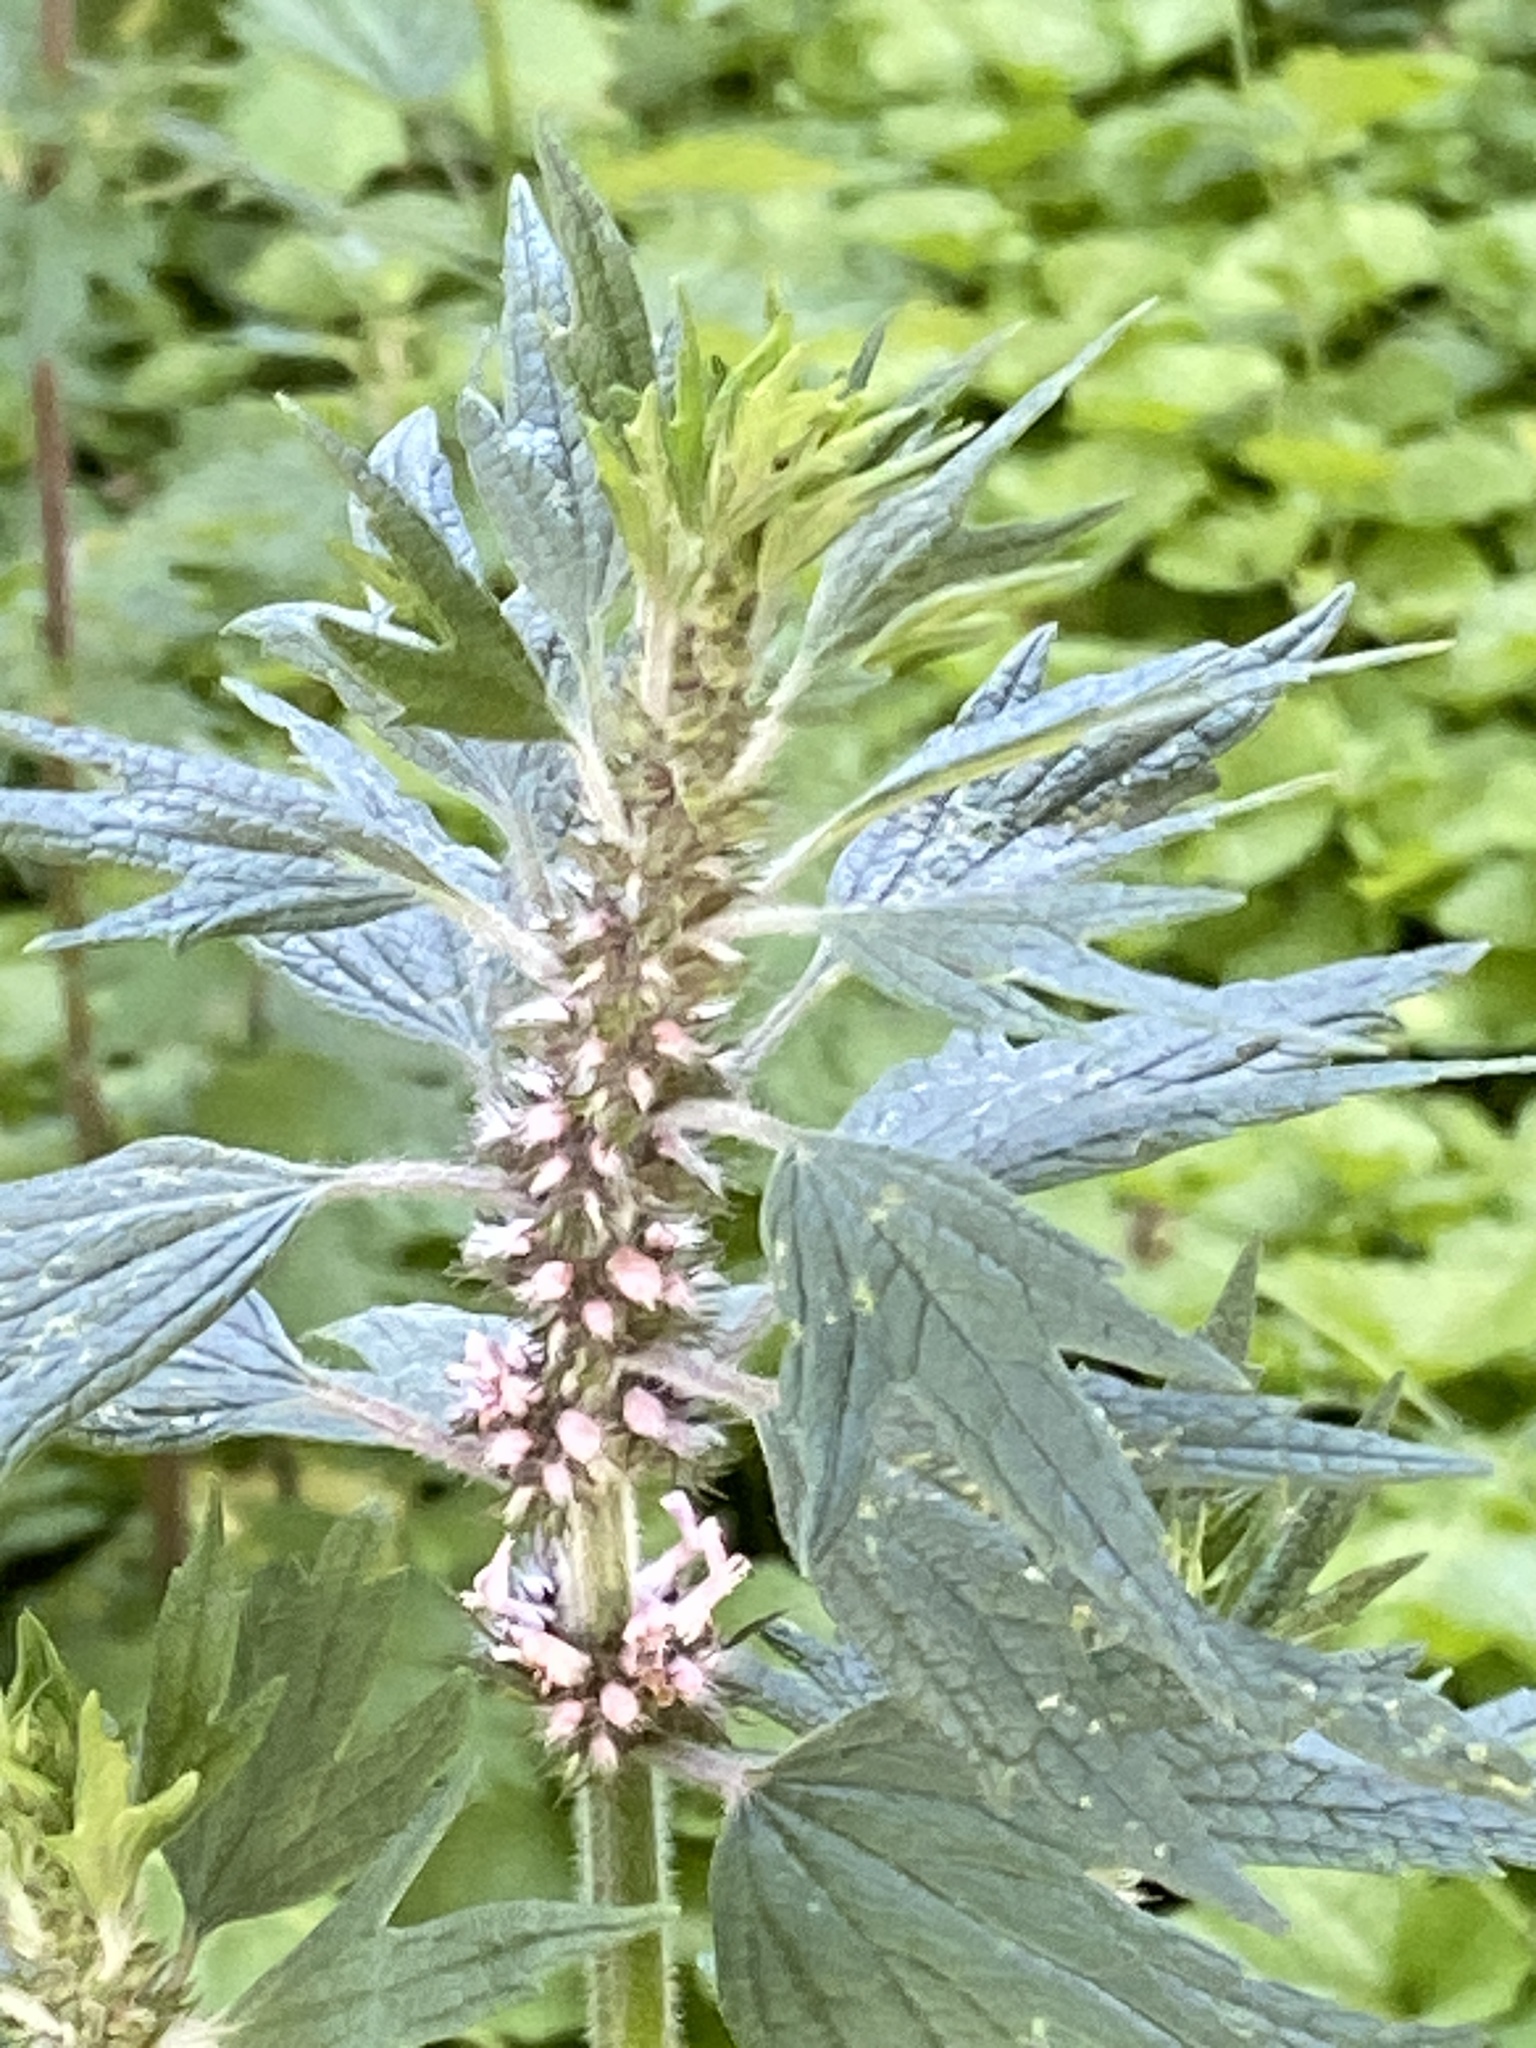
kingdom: Plantae
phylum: Tracheophyta
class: Magnoliopsida
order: Lamiales
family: Lamiaceae
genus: Leonurus
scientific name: Leonurus quinquelobatus
